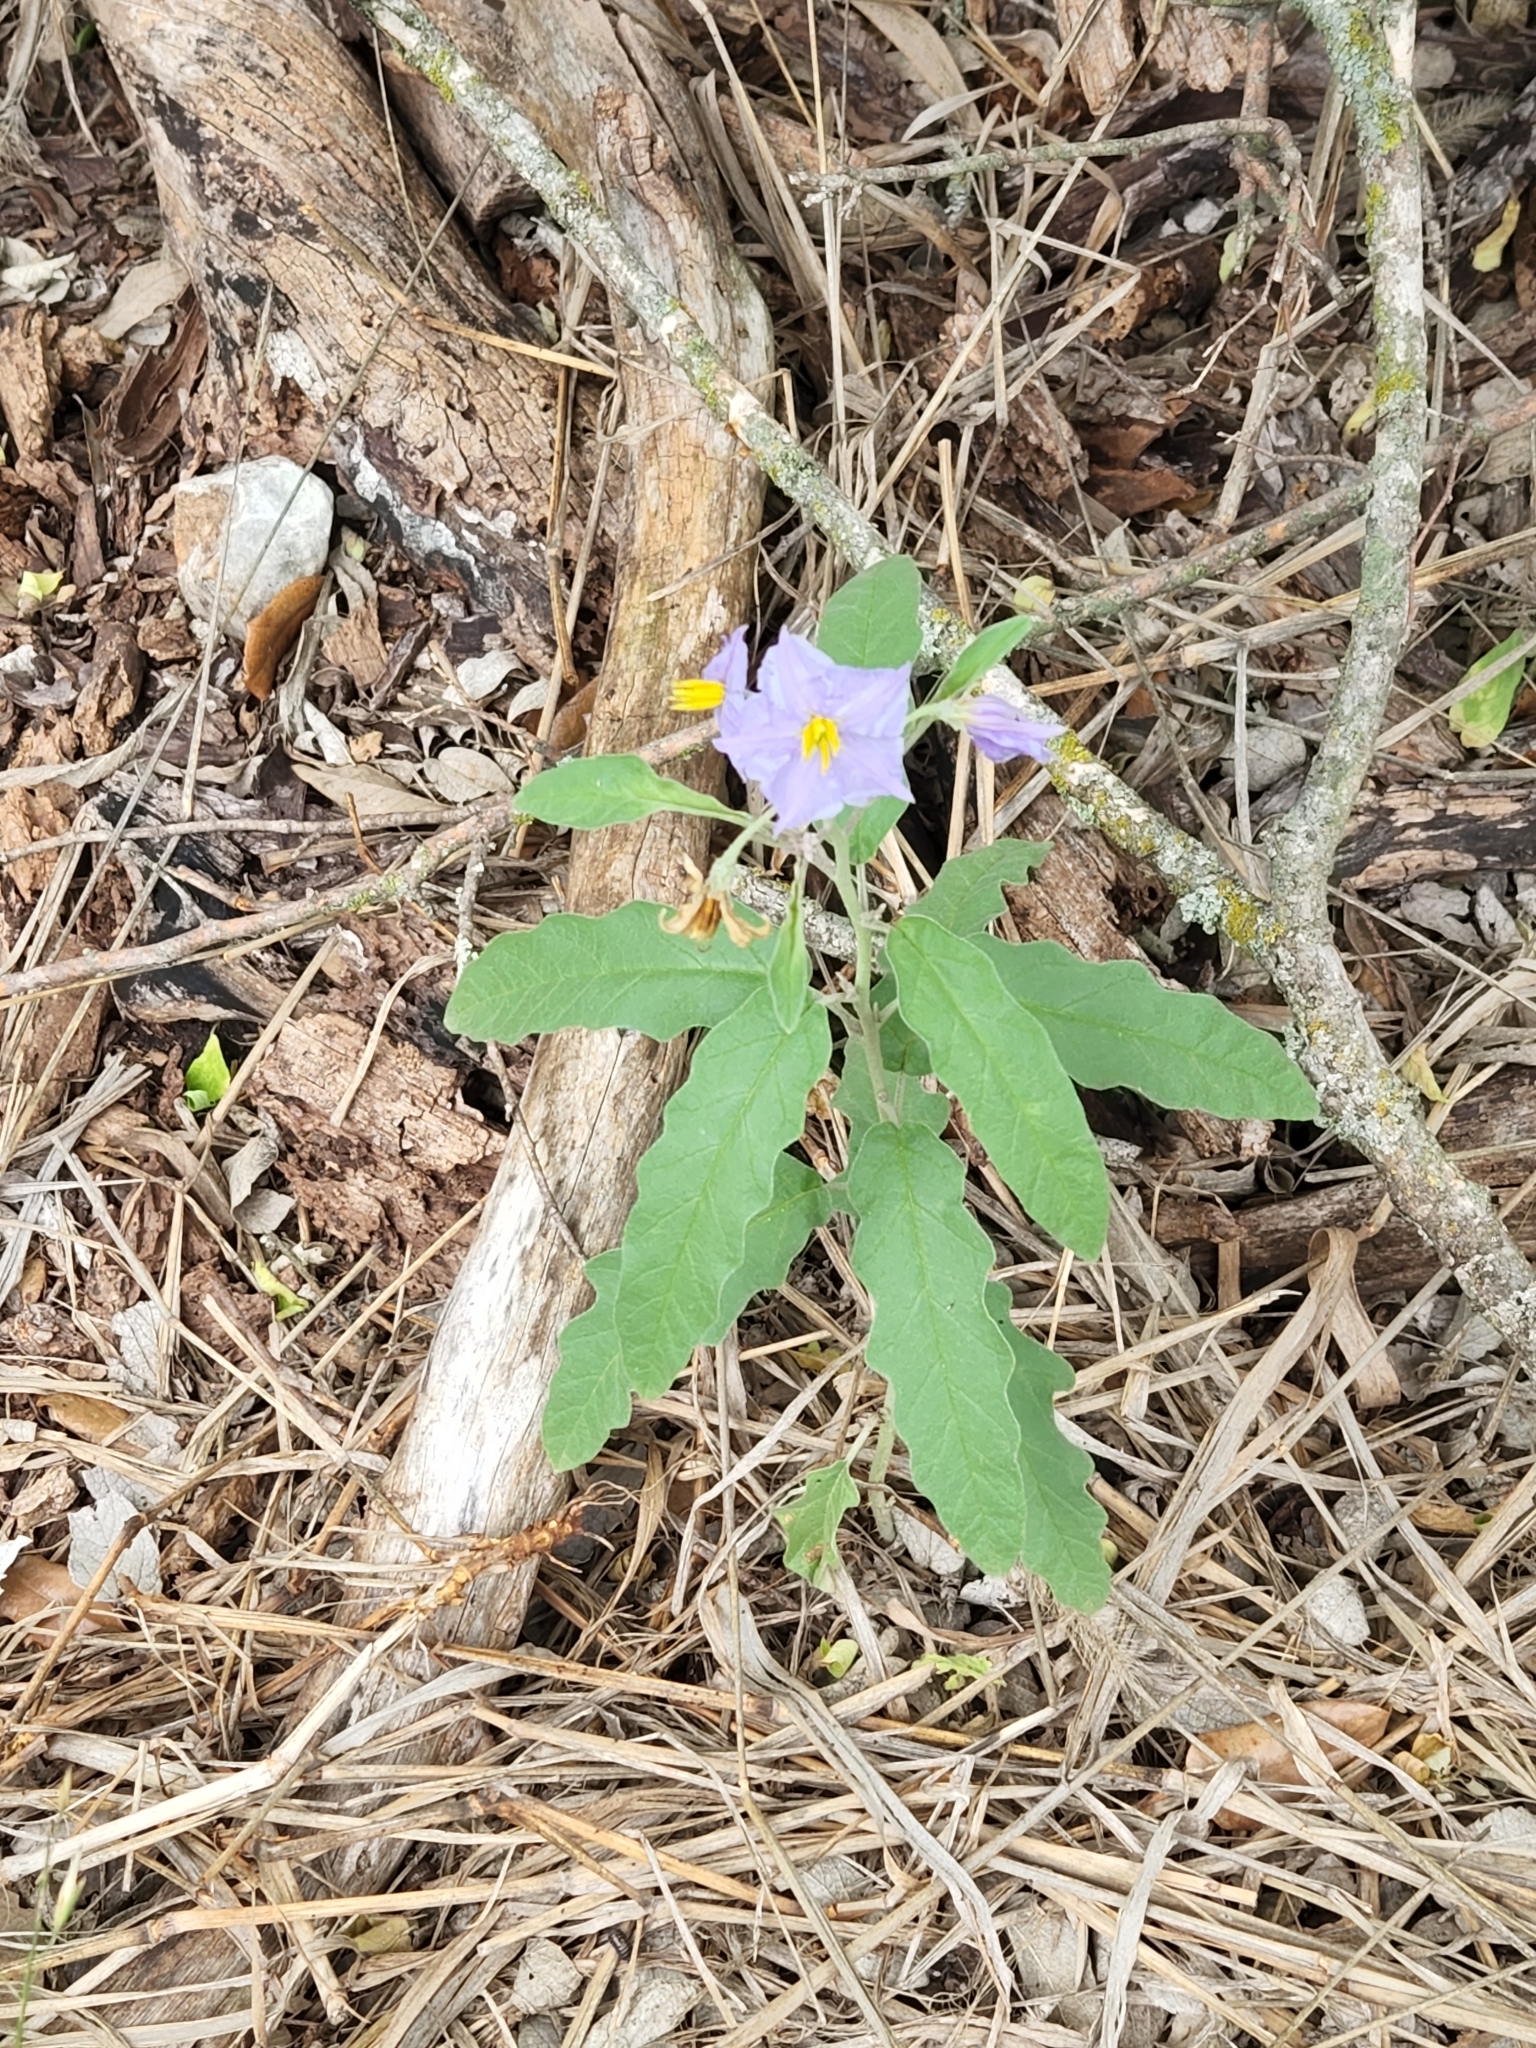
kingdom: Plantae
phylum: Tracheophyta
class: Magnoliopsida
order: Solanales
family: Solanaceae
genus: Solanum
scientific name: Solanum elaeagnifolium
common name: Silverleaf nightshade
